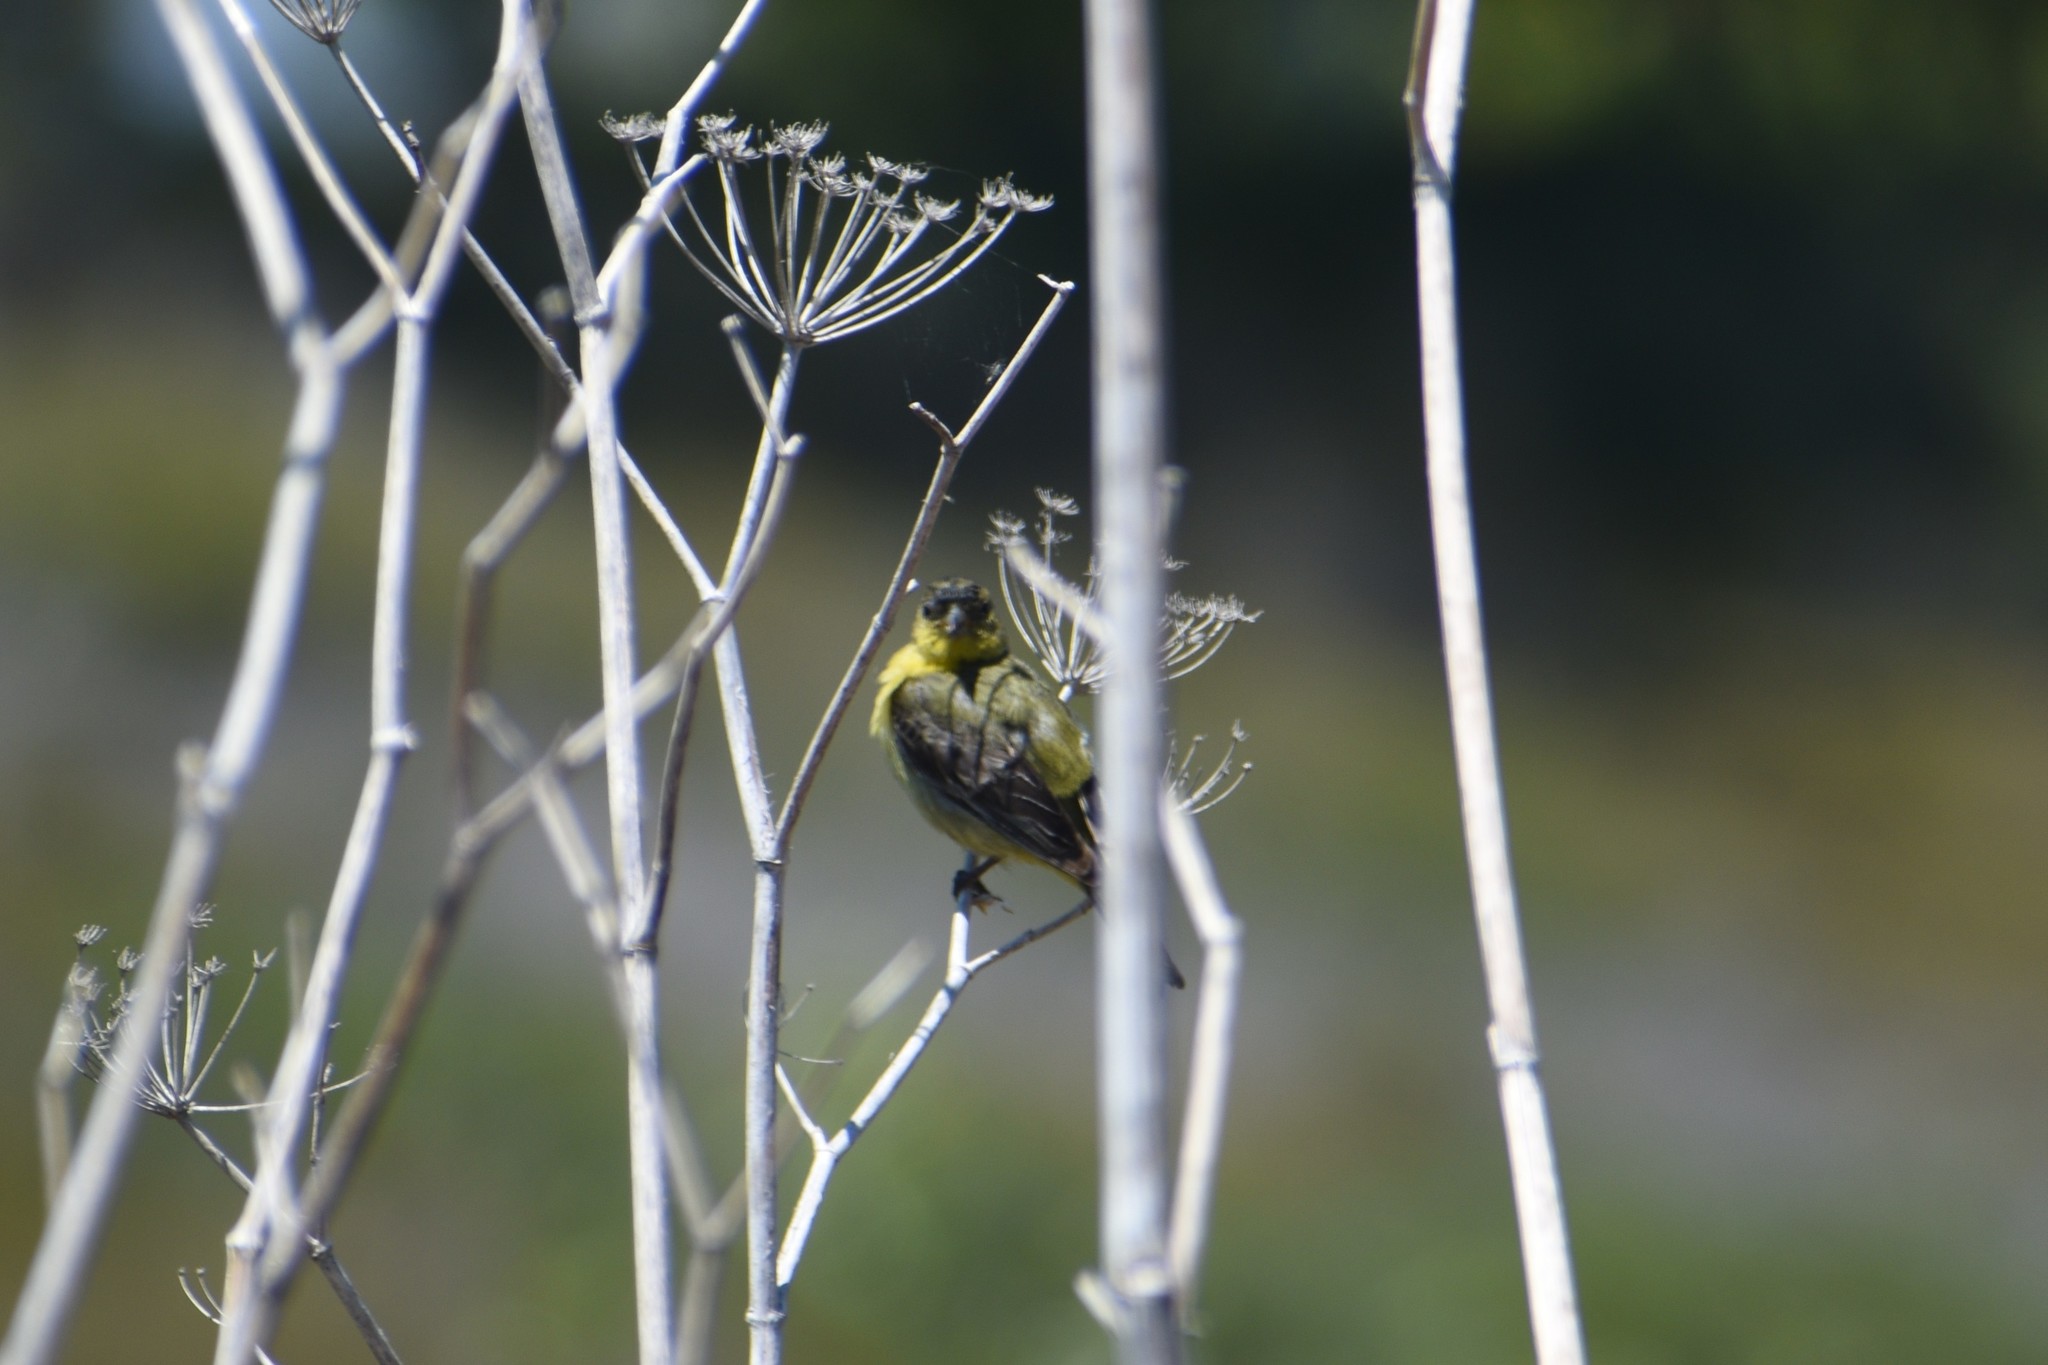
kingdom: Animalia
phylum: Chordata
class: Aves
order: Passeriformes
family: Fringillidae
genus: Spinus
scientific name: Spinus psaltria
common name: Lesser goldfinch
